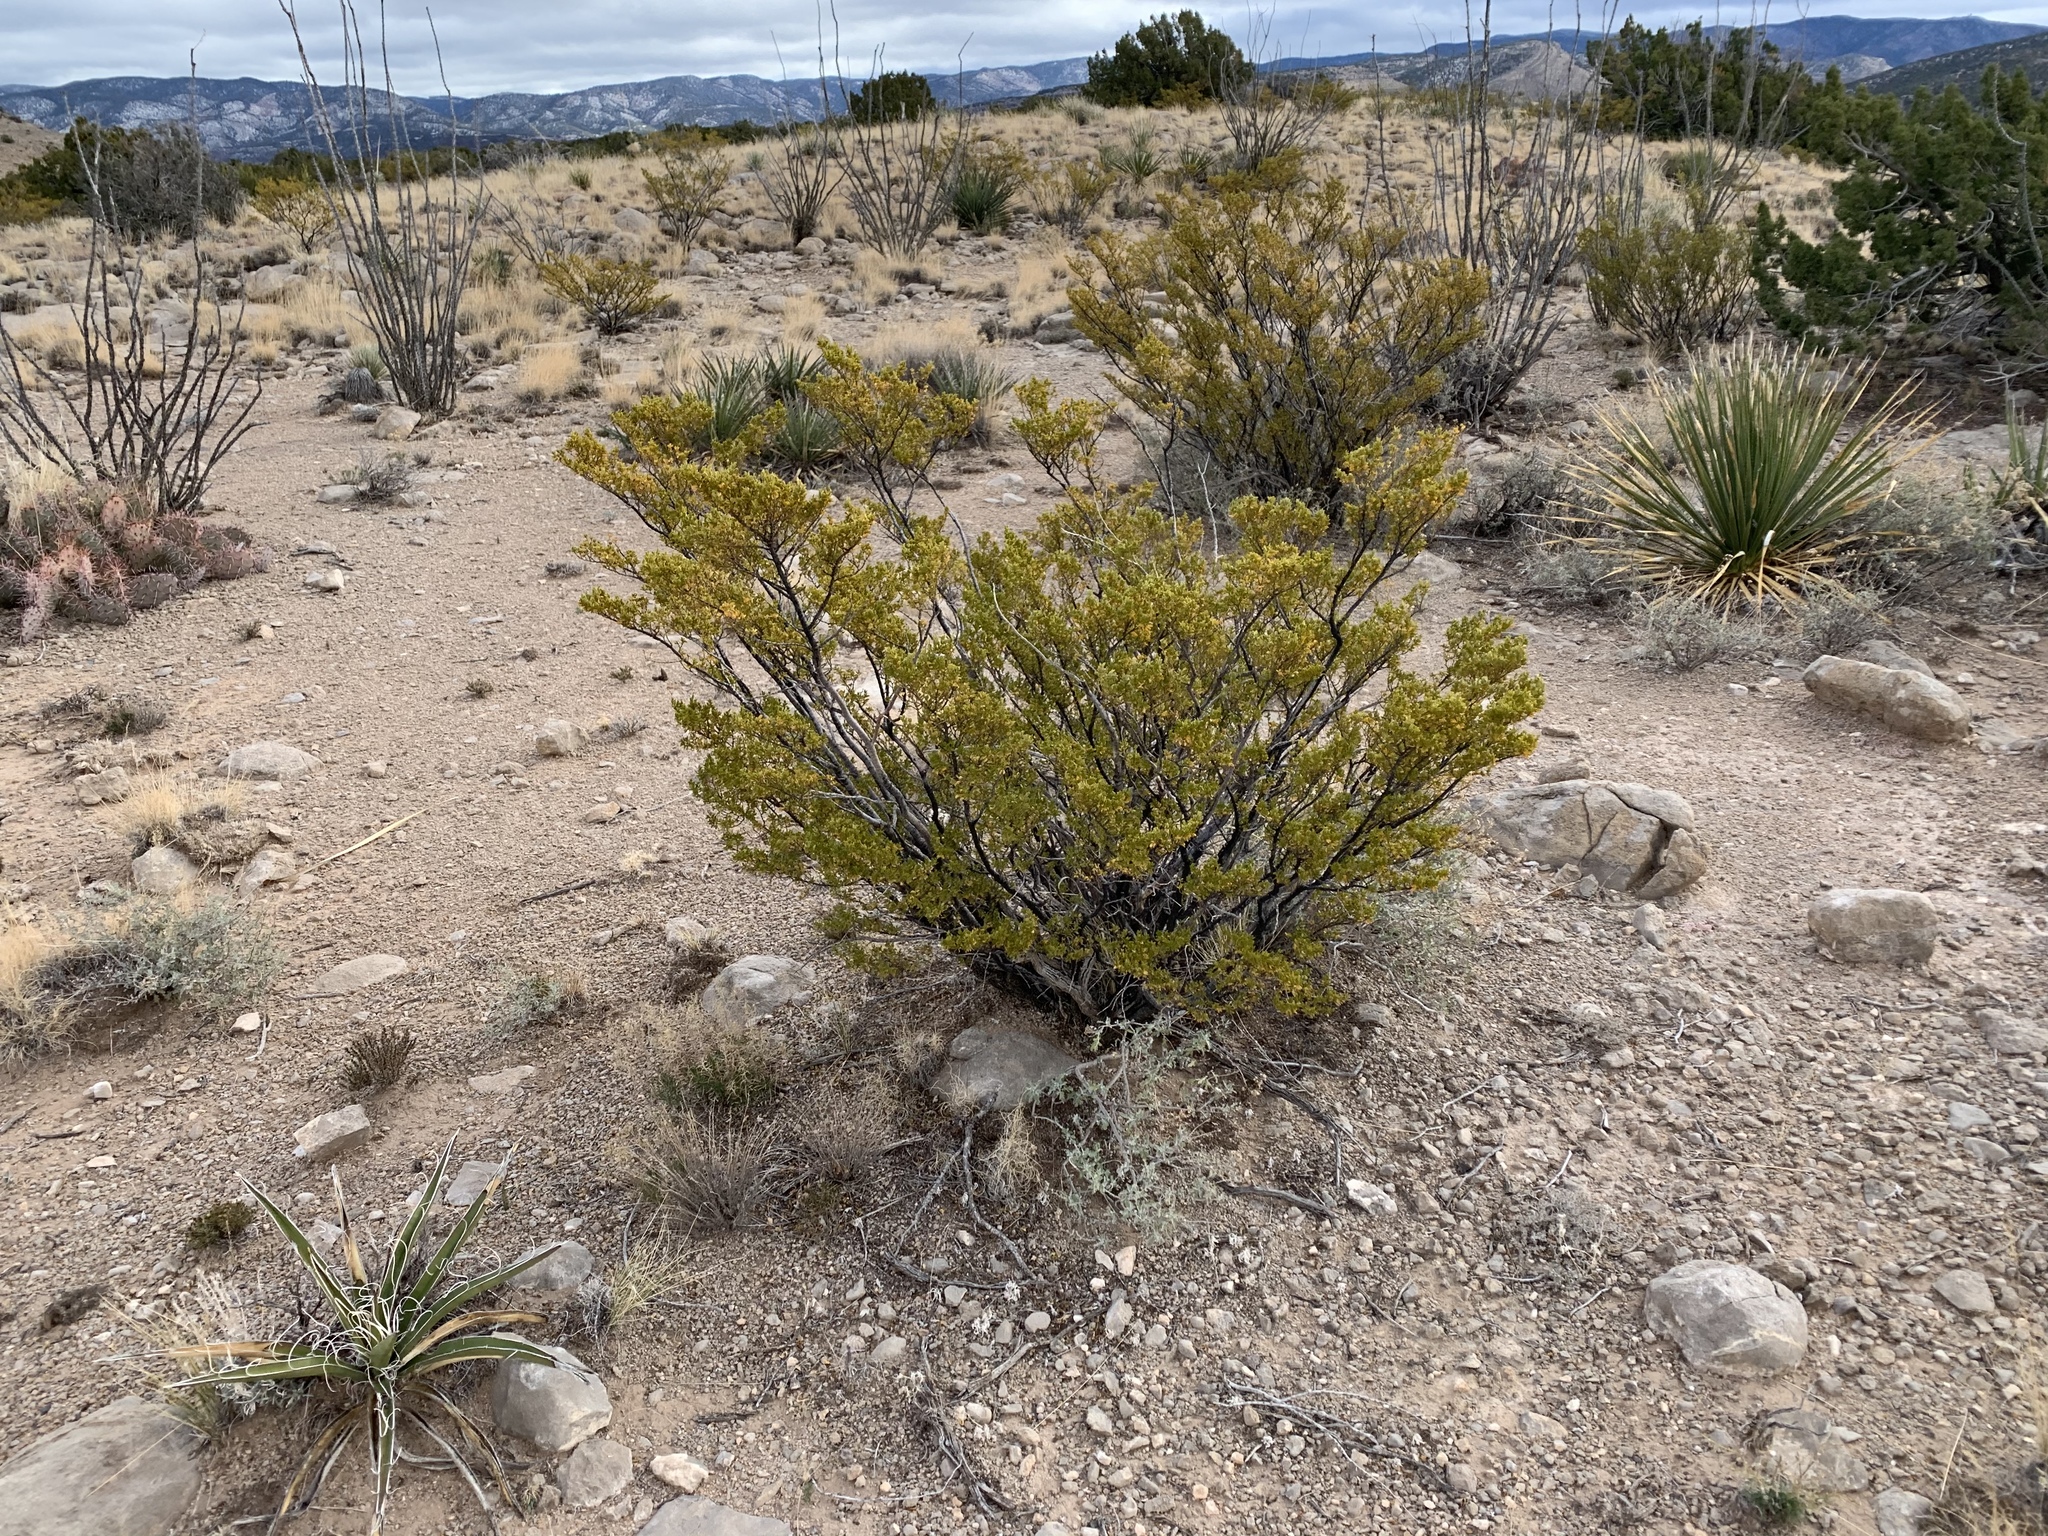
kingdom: Plantae
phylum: Tracheophyta
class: Magnoliopsida
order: Zygophyllales
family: Zygophyllaceae
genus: Larrea
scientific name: Larrea tridentata
